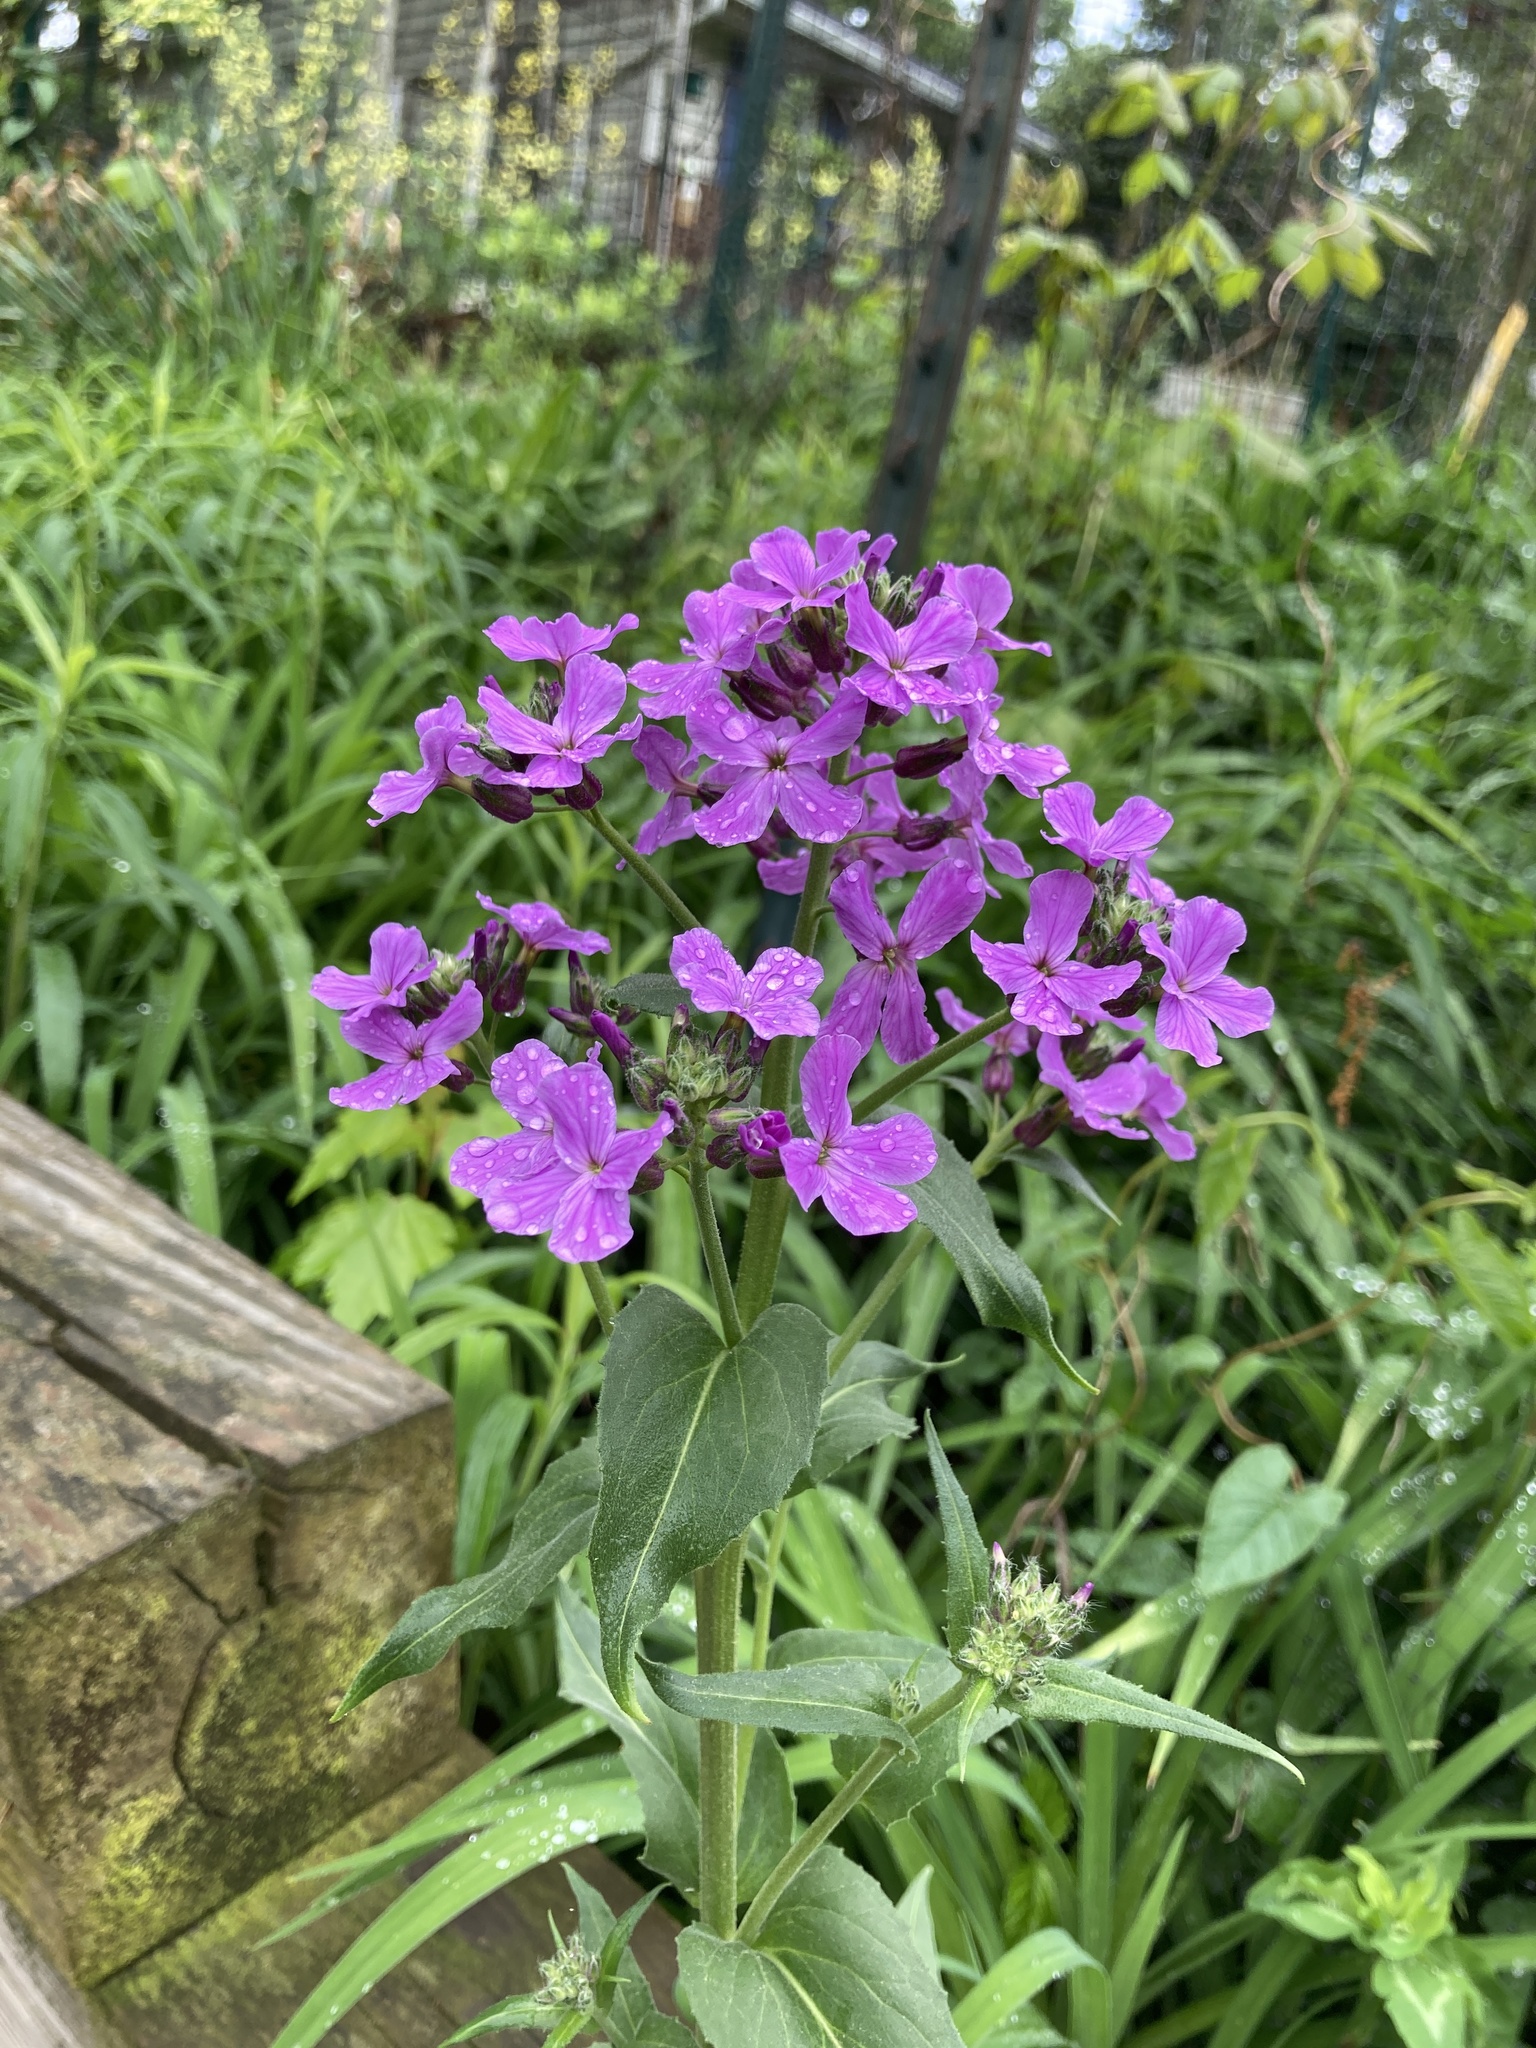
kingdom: Plantae
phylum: Tracheophyta
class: Magnoliopsida
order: Brassicales
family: Brassicaceae
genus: Hesperis
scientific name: Hesperis matronalis
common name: Dame's-violet
